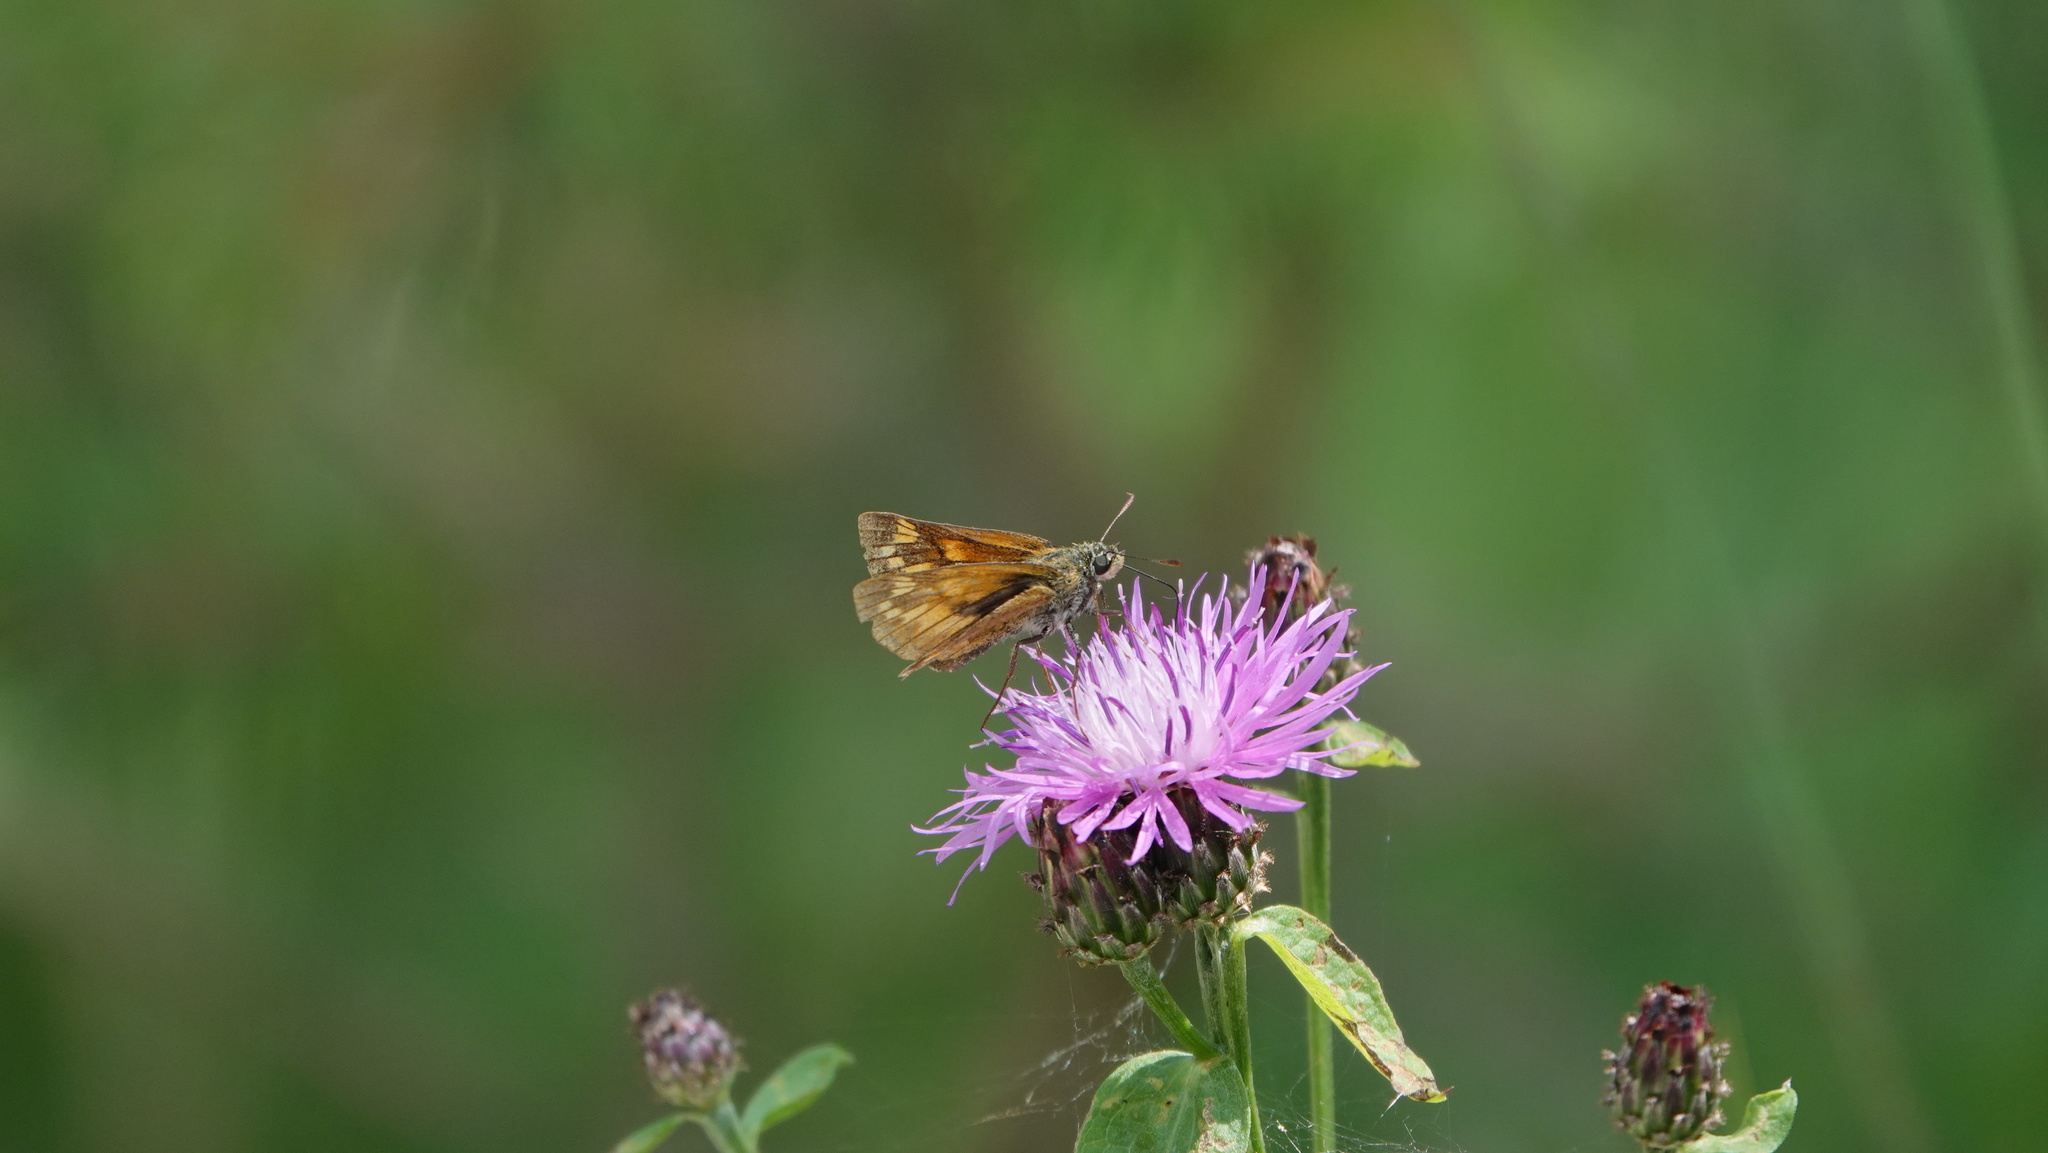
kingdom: Animalia
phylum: Arthropoda
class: Insecta
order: Lepidoptera
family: Hesperiidae
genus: Ochlodes
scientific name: Ochlodes venata
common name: Large skipper
